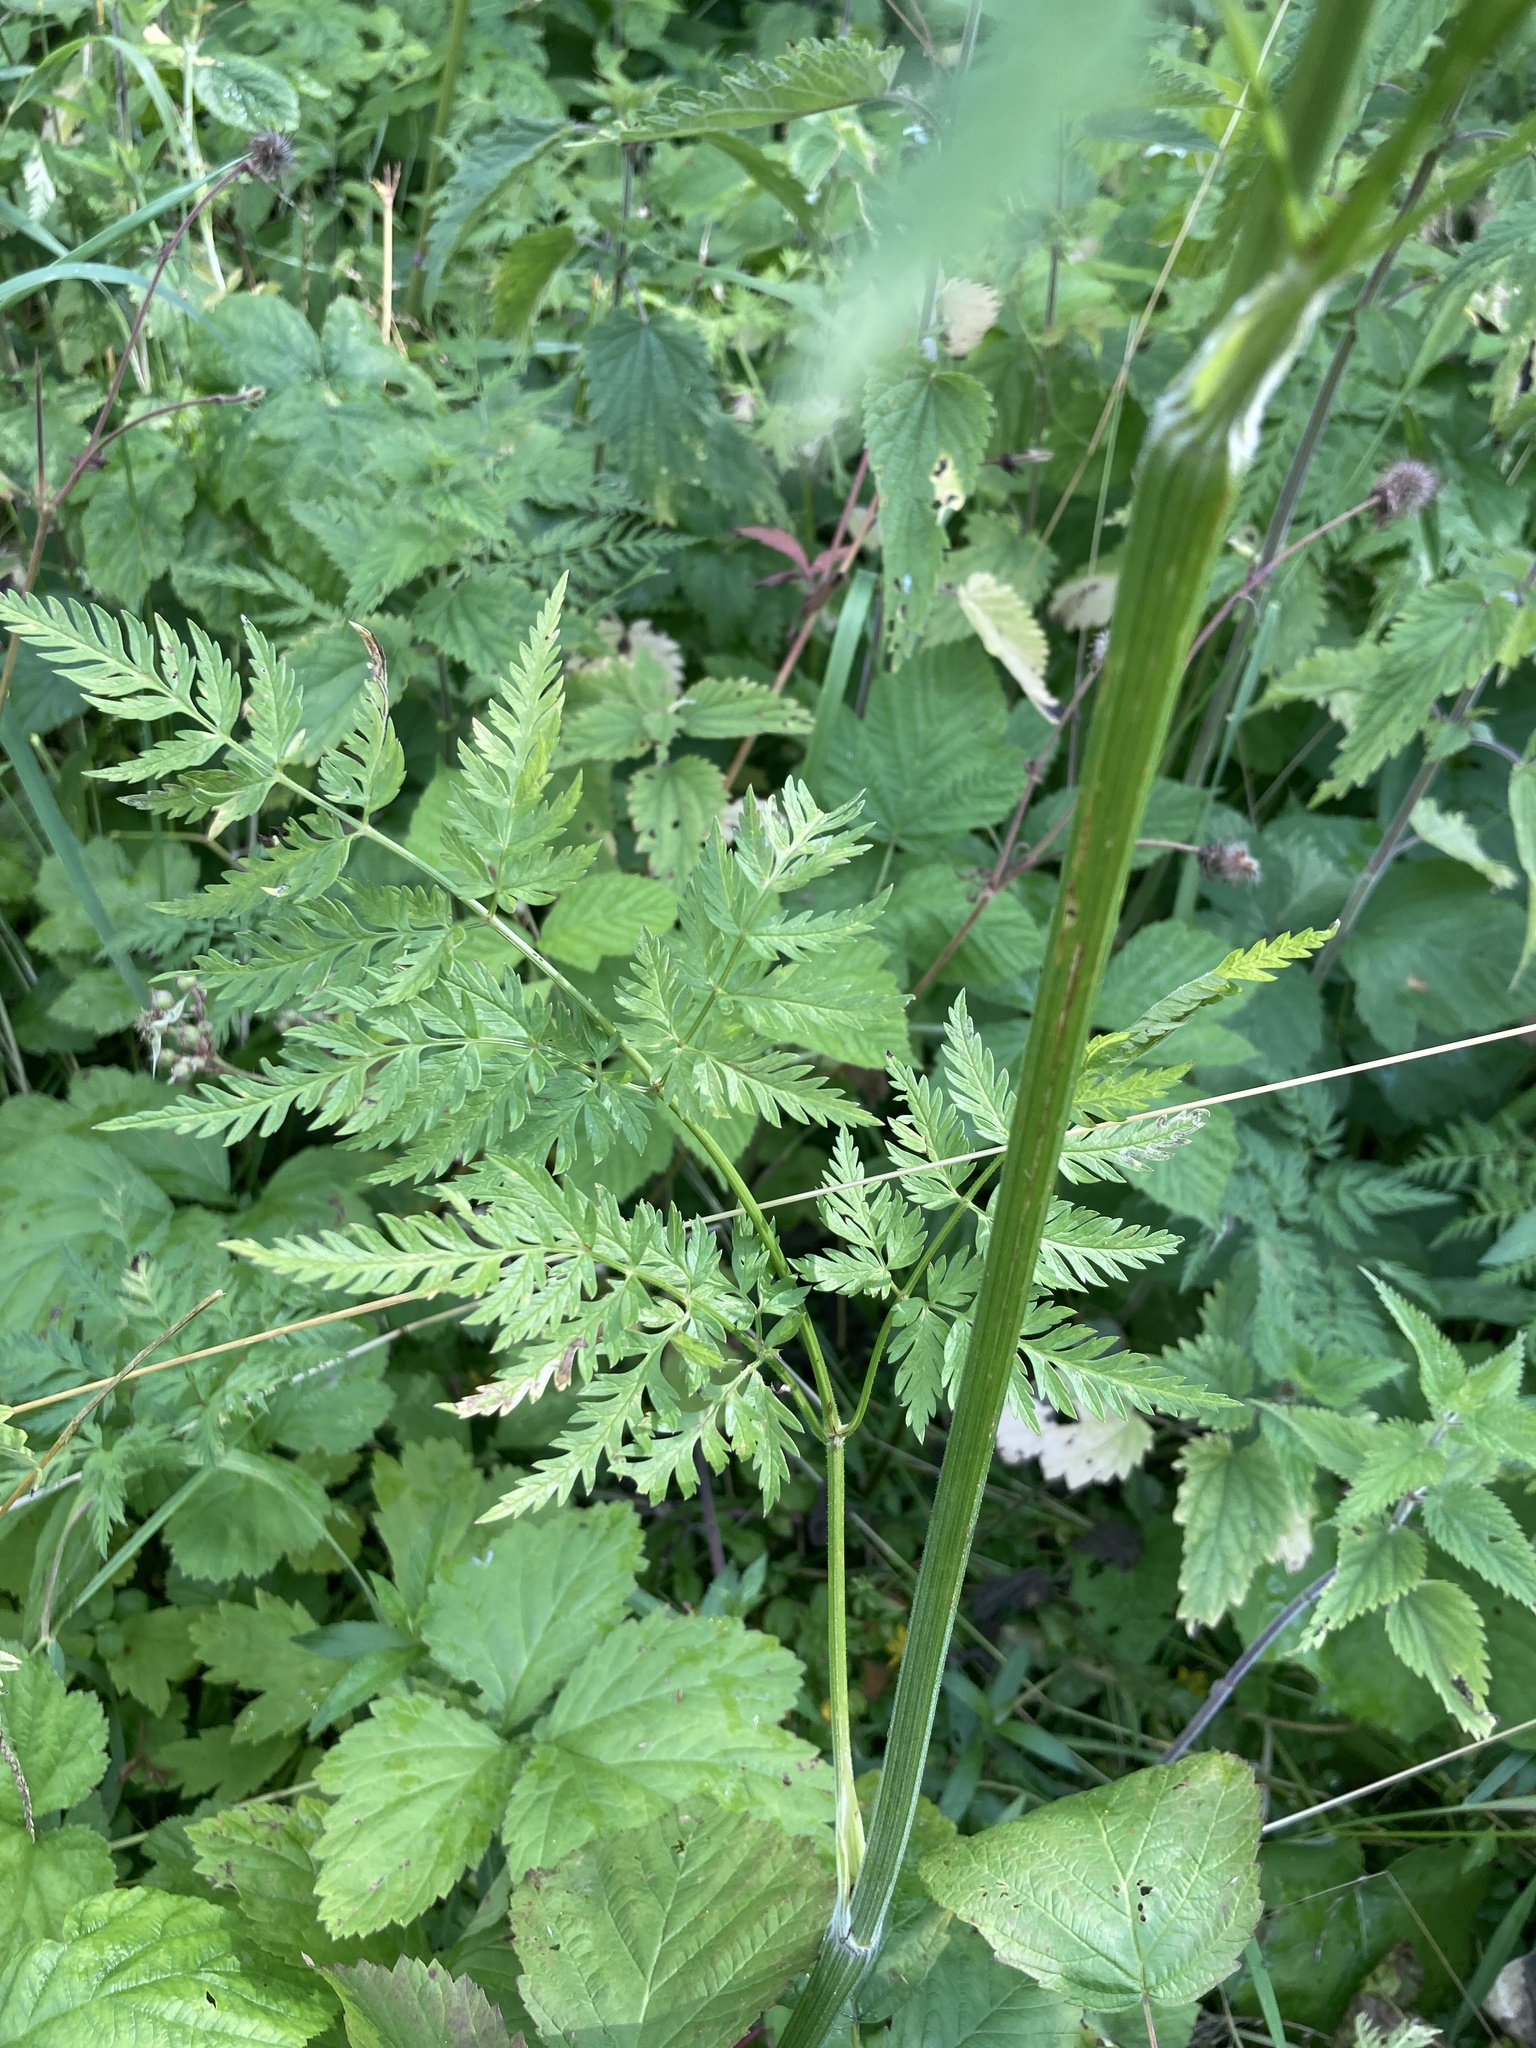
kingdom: Plantae
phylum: Tracheophyta
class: Magnoliopsida
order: Apiales
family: Apiaceae
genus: Anthriscus
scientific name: Anthriscus sylvestris
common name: Cow parsley
